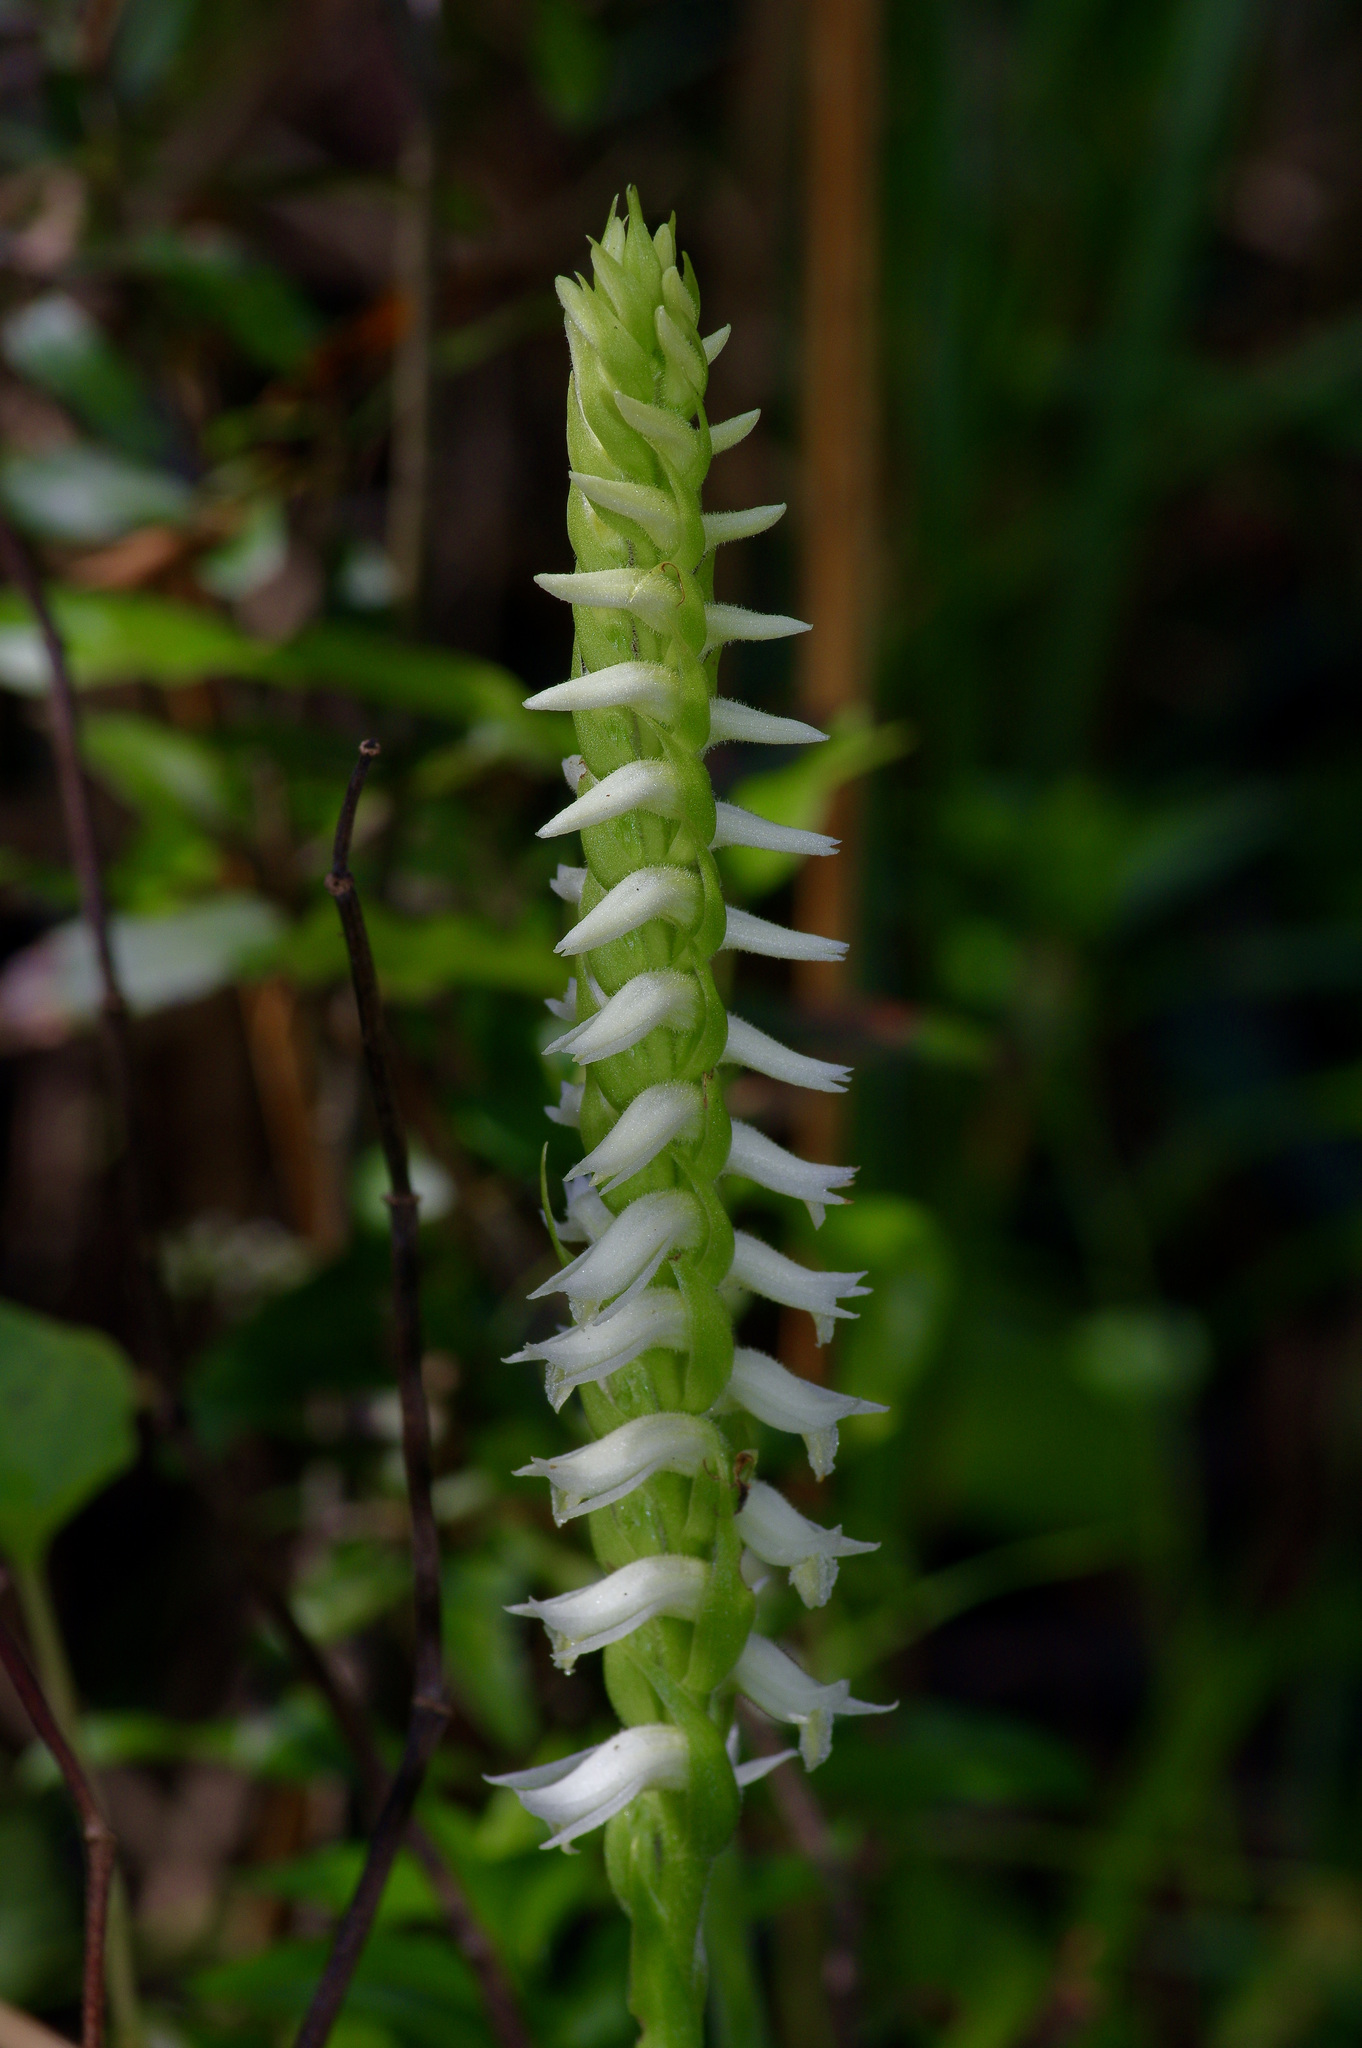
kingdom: Plantae
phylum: Tracheophyta
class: Liliopsida
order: Asparagales
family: Orchidaceae
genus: Spiranthes
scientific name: Spiranthes odorata
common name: Marsh ladies'-tresses
